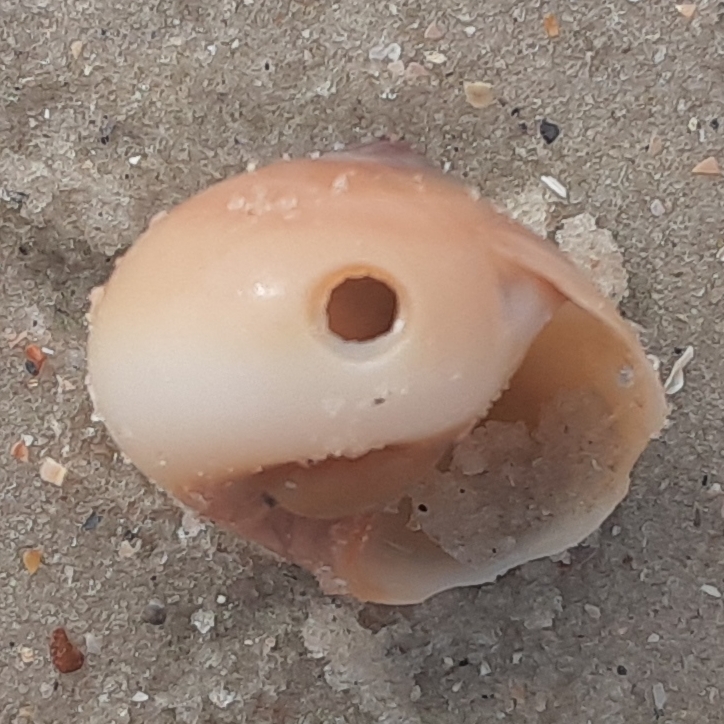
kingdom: Animalia
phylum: Mollusca
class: Gastropoda
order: Littorinimorpha
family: Naticidae
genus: Neverita
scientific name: Neverita duplicata
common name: Lobed moonsnail
